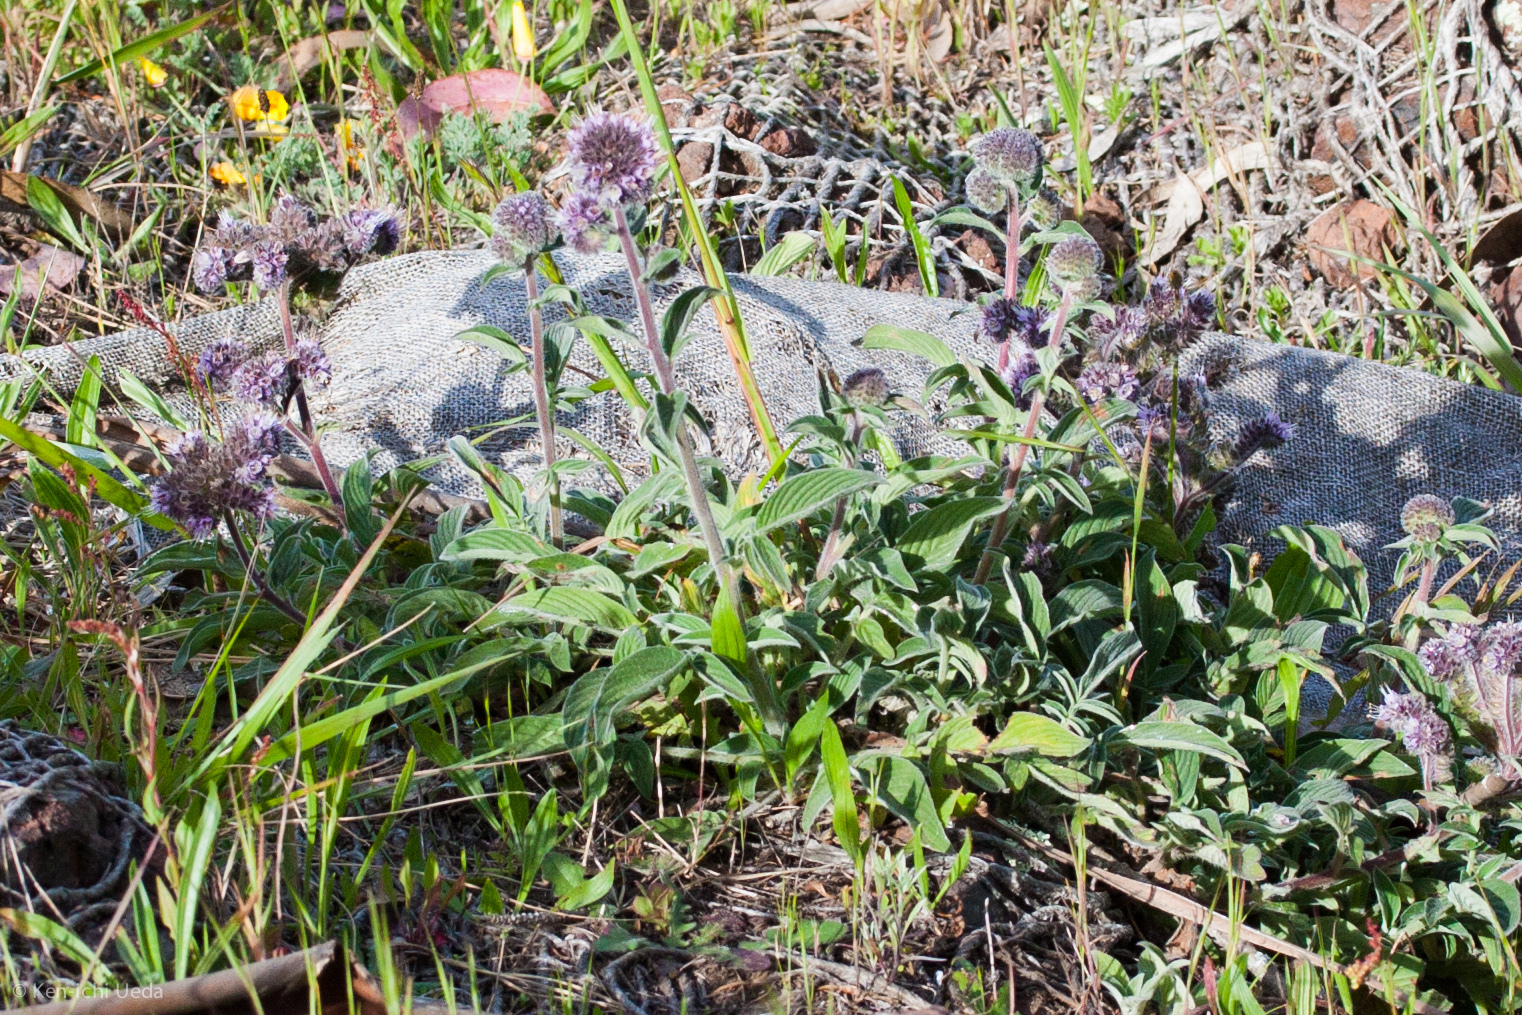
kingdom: Plantae
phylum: Tracheophyta
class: Magnoliopsida
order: Boraginales
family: Hydrophyllaceae
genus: Phacelia
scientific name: Phacelia californica
